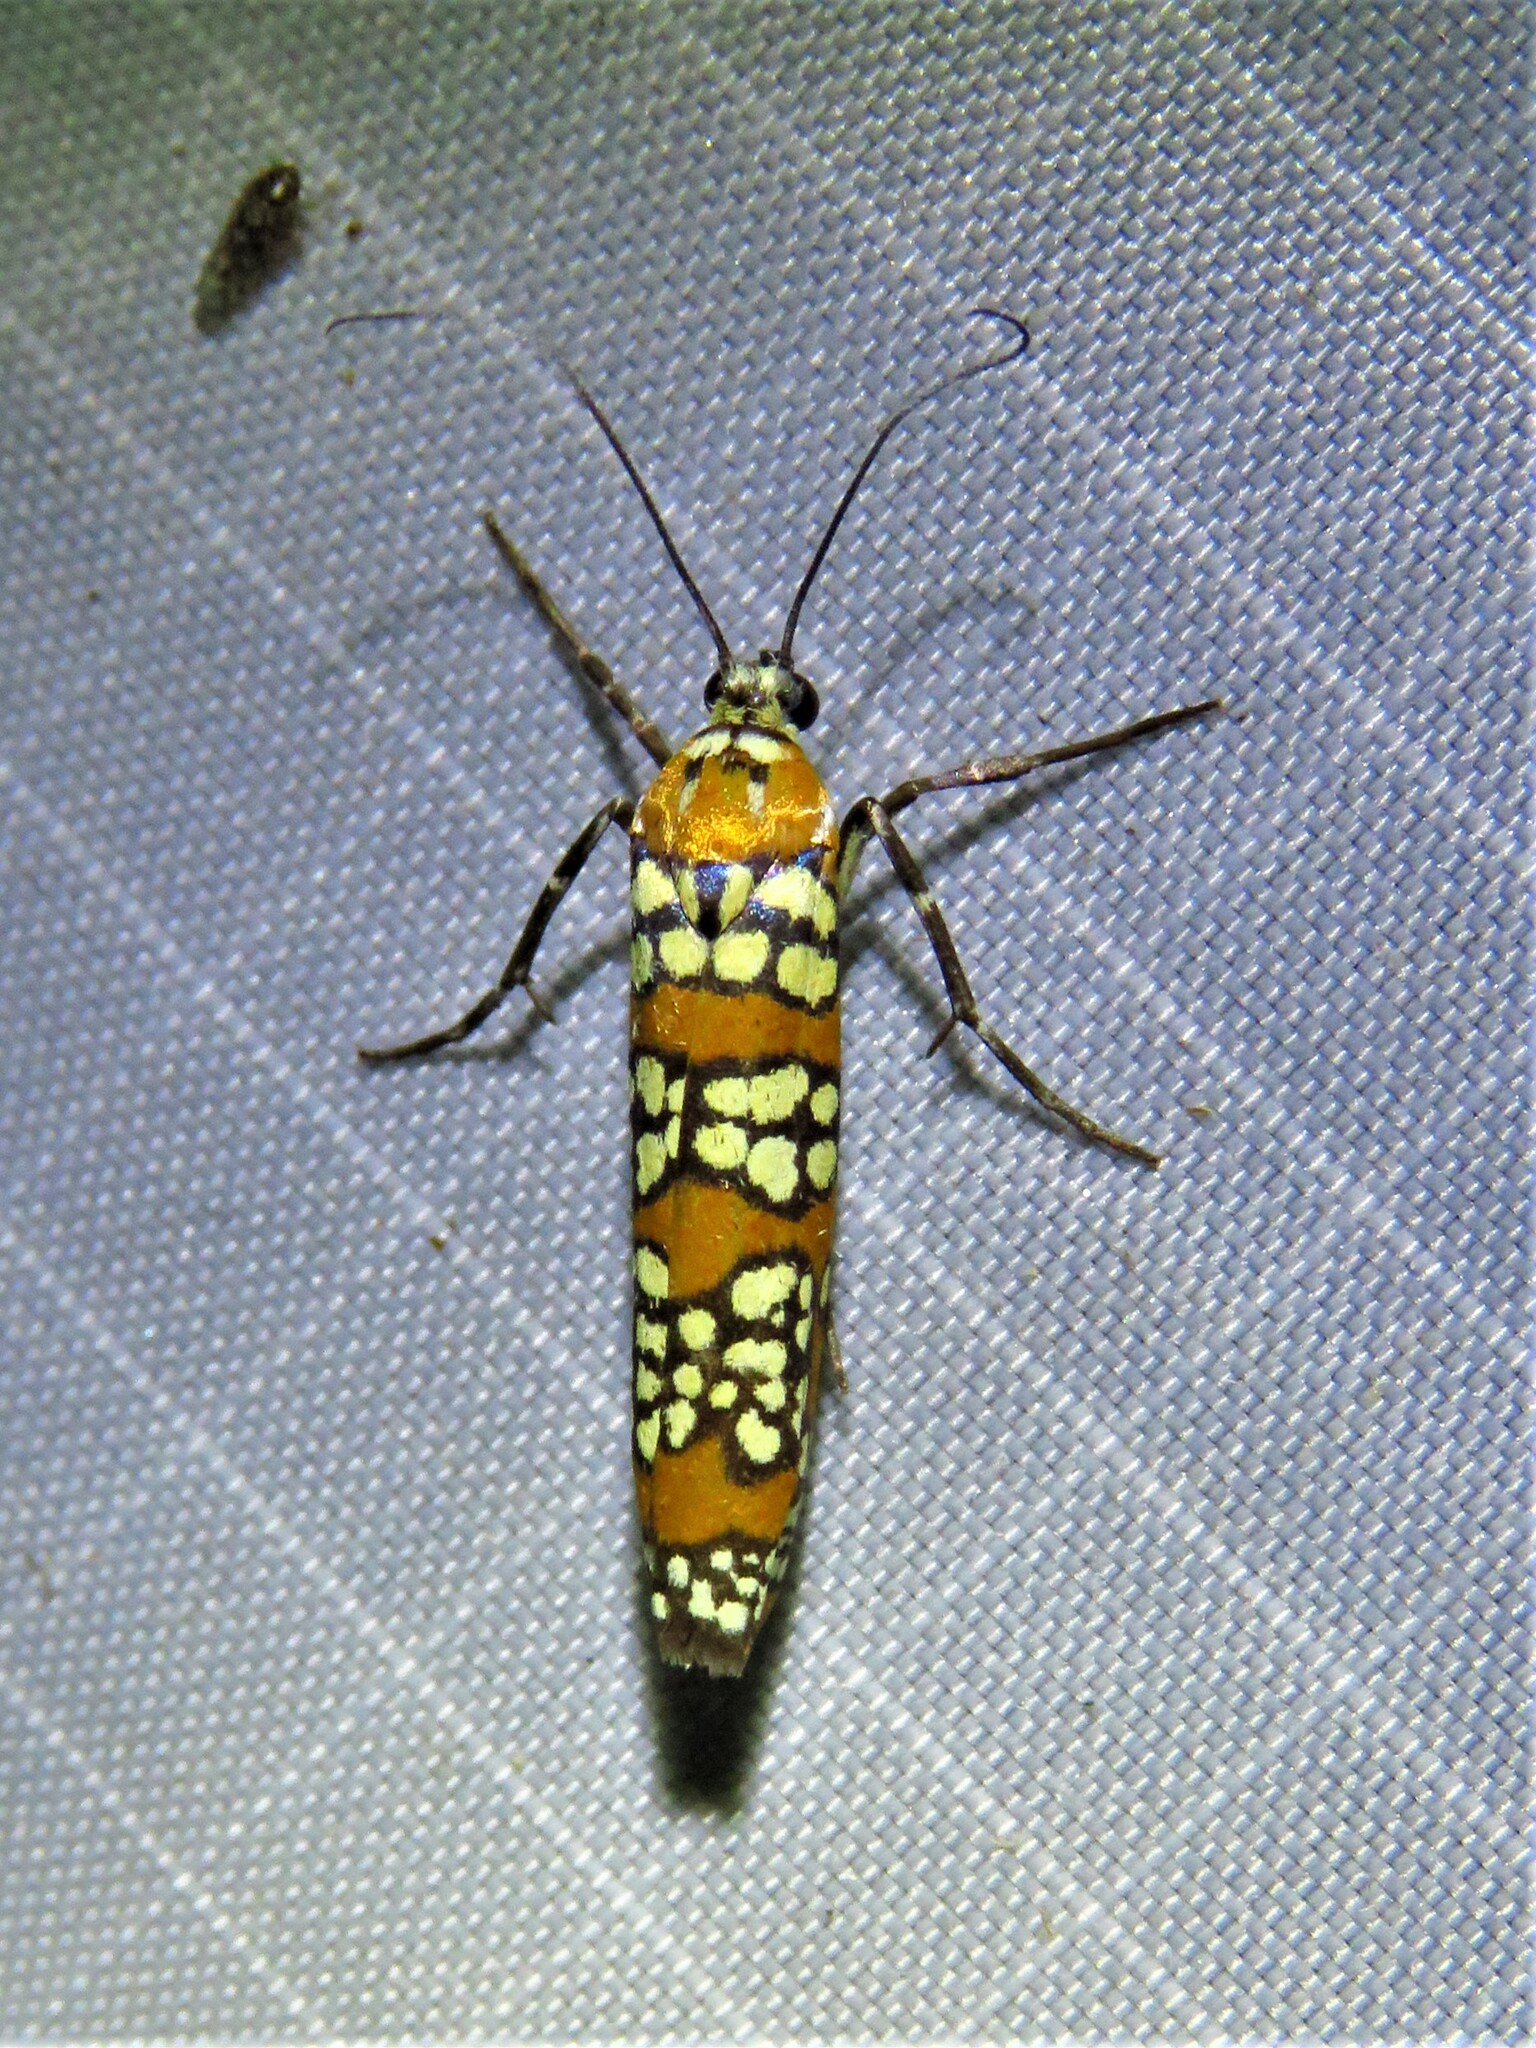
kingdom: Animalia
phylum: Arthropoda
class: Insecta
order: Lepidoptera
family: Attevidae
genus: Atteva
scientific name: Atteva punctella
